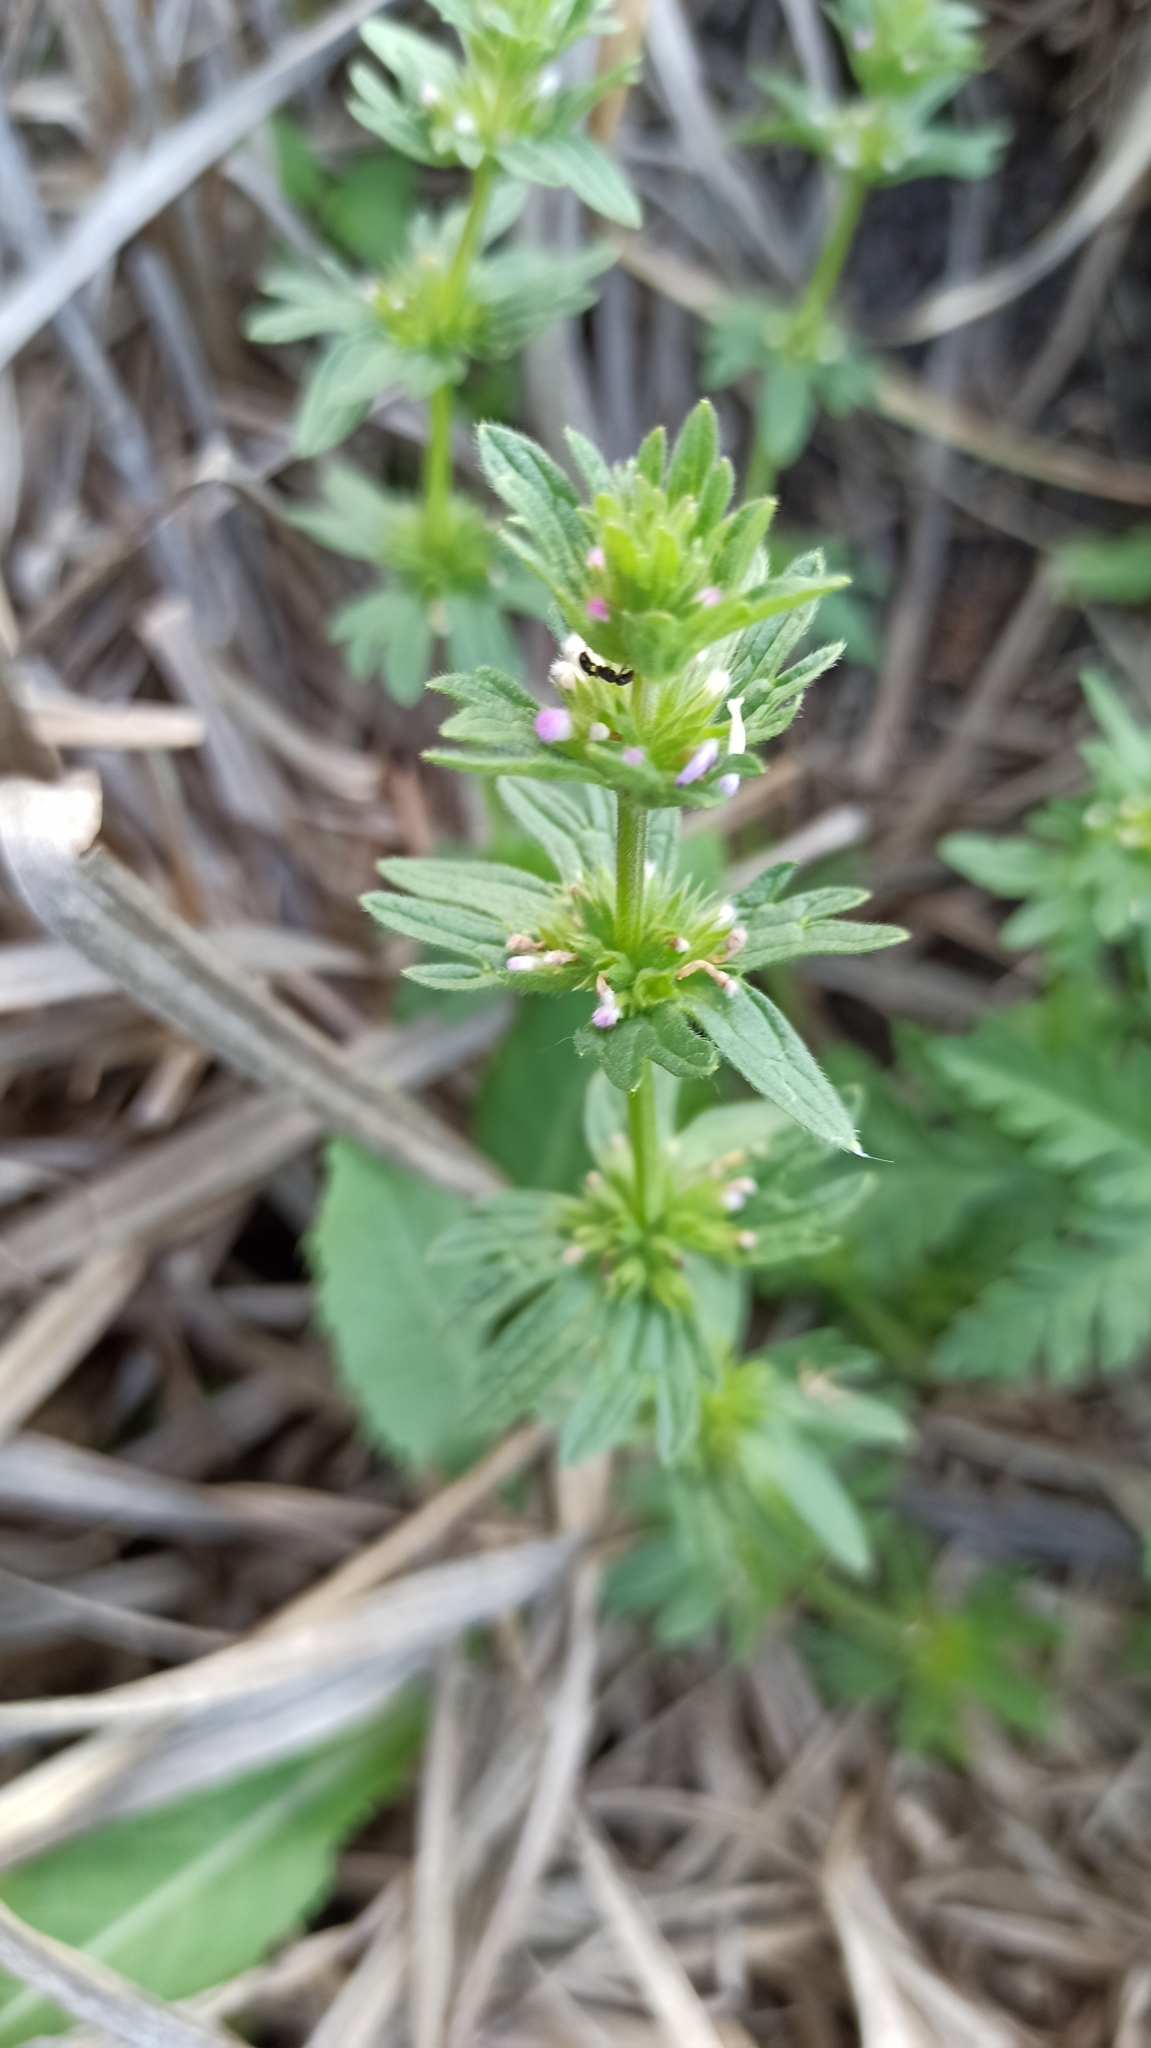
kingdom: Plantae
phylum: Tracheophyta
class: Magnoliopsida
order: Lamiales
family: Lamiaceae
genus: Lamium
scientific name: Lamium amplexicaule
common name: Henbit dead-nettle
